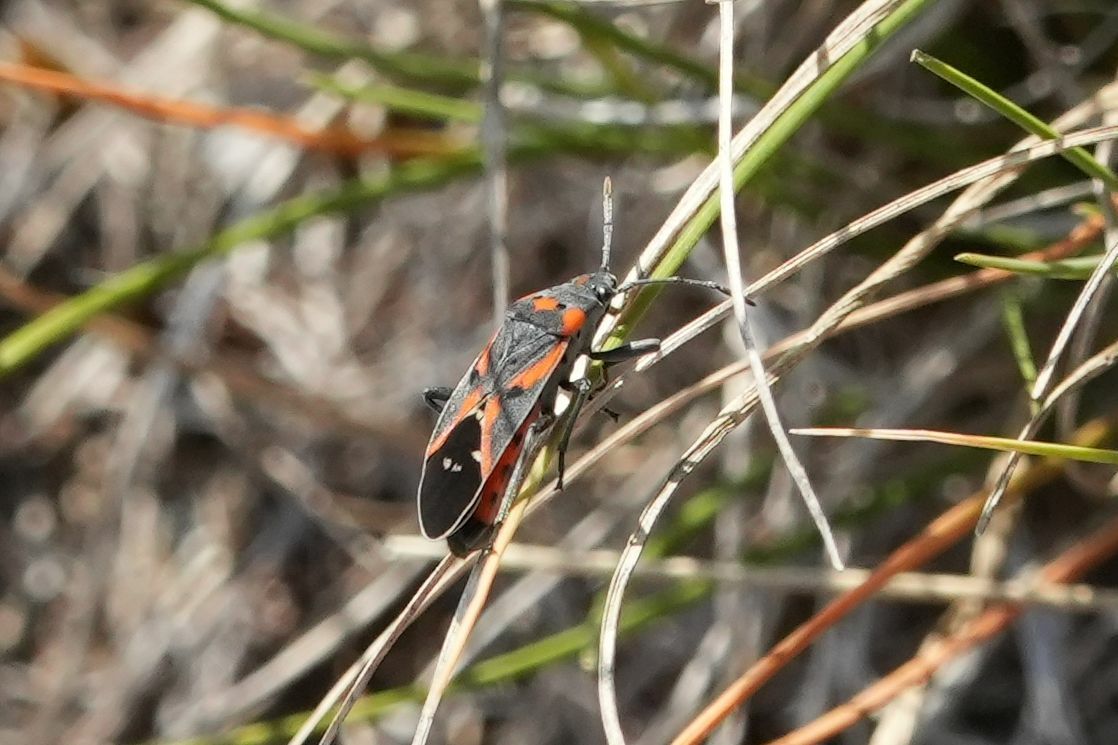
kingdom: Animalia
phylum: Arthropoda
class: Insecta
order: Hemiptera
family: Lygaeidae
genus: Lygaeus
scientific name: Lygaeus kalmii
